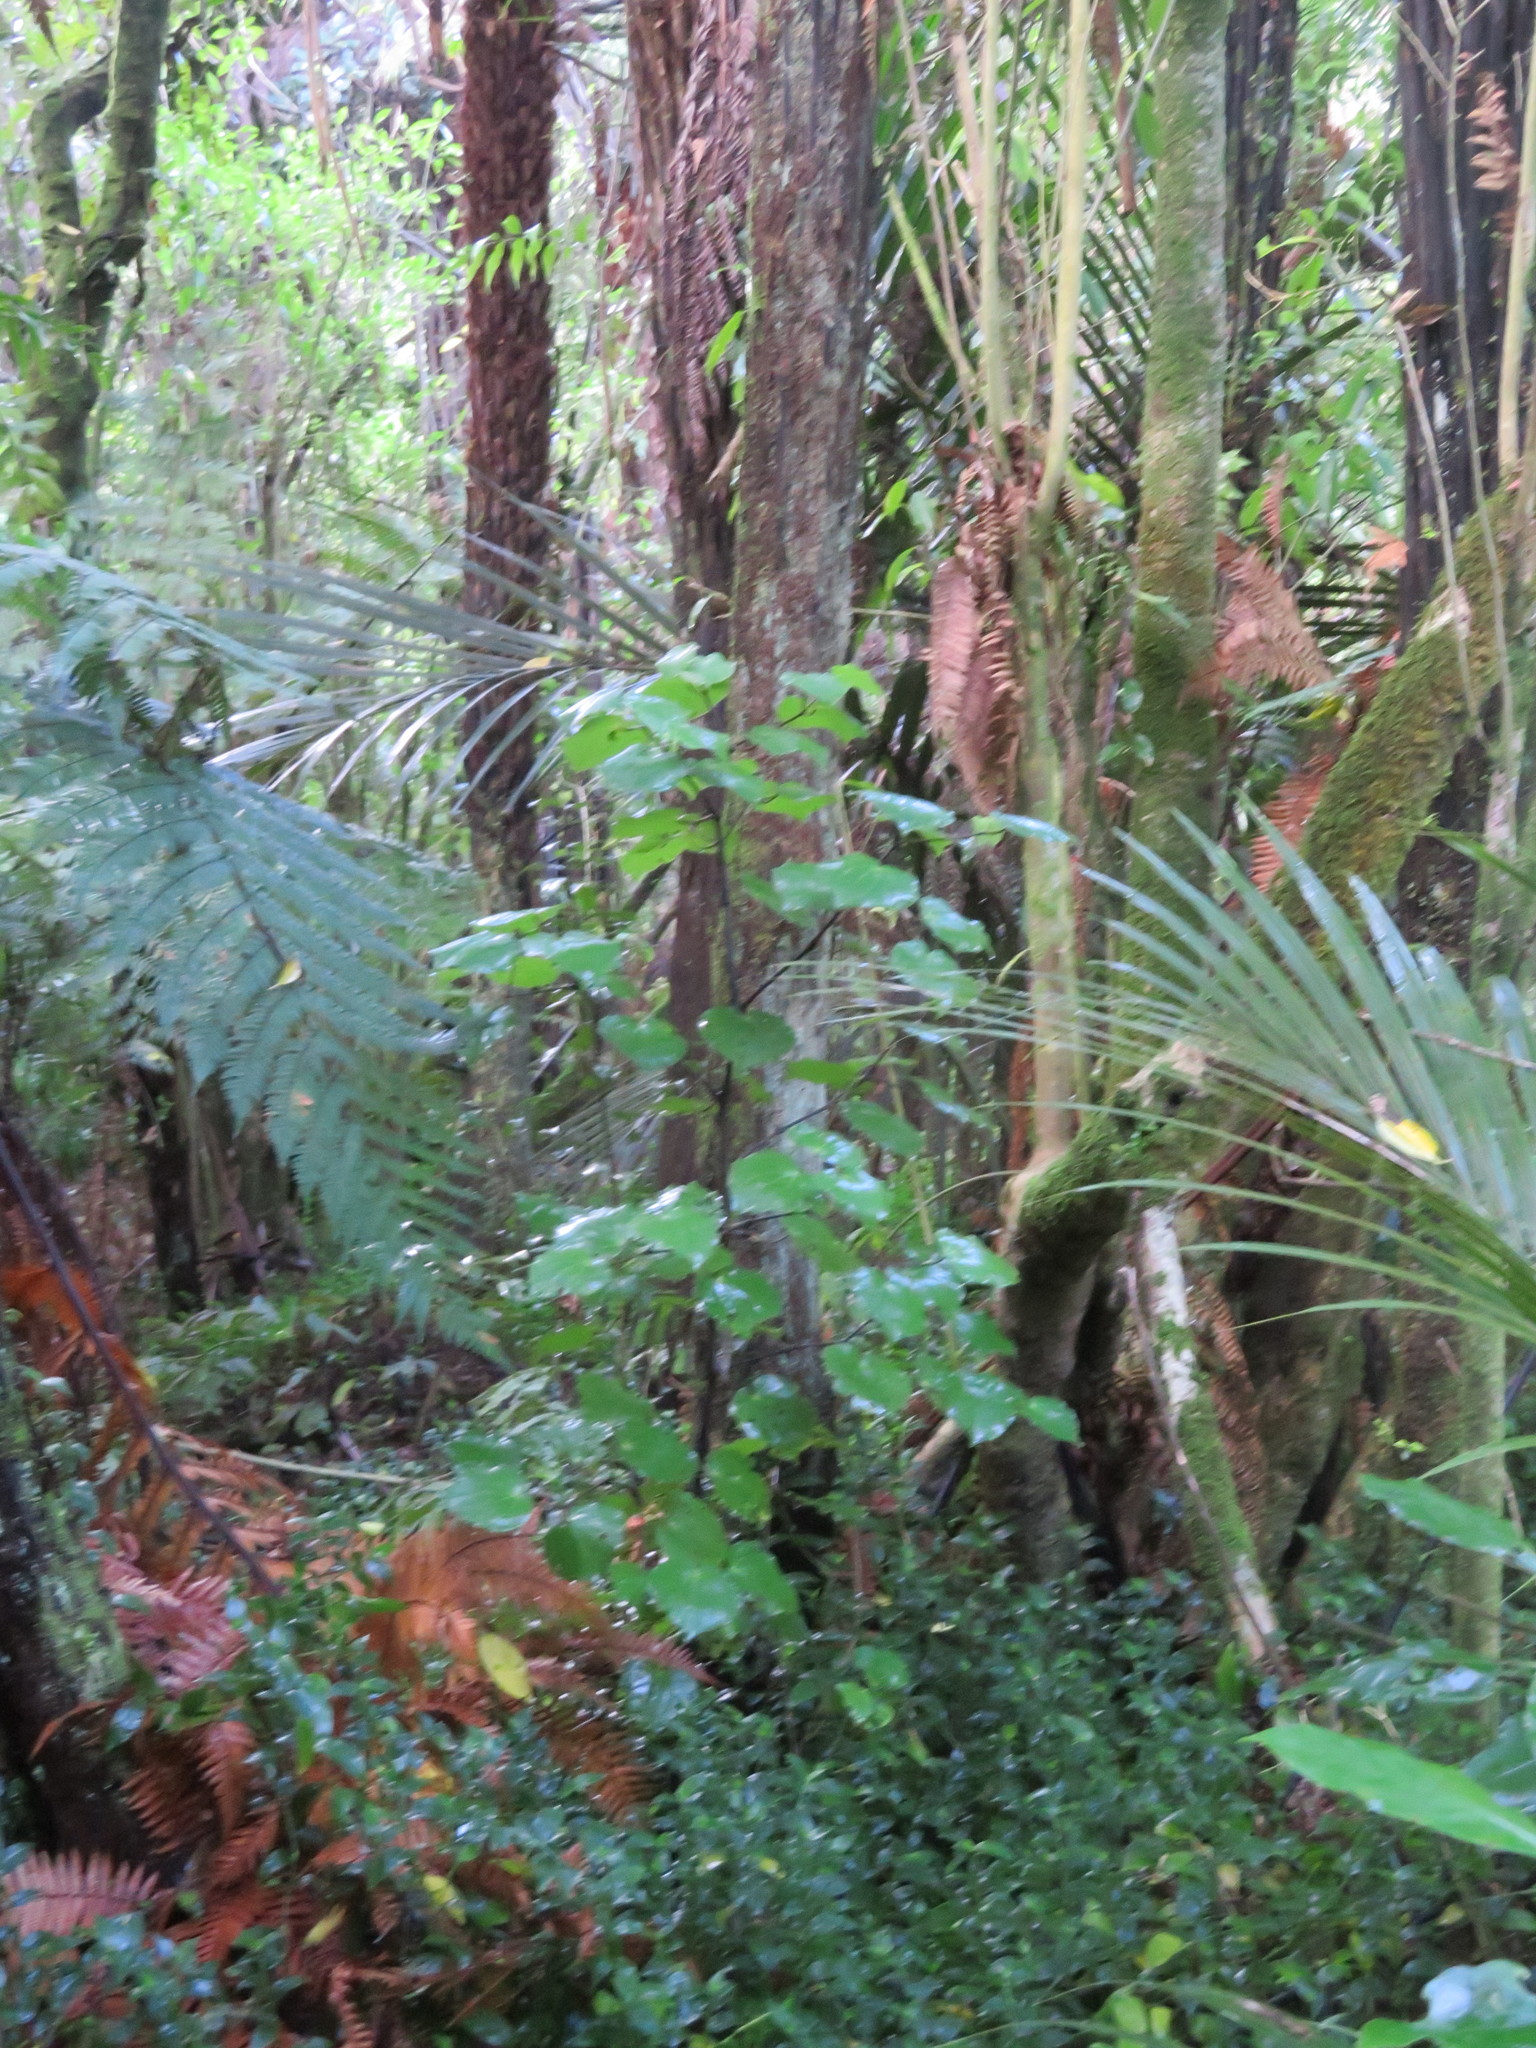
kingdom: Plantae
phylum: Tracheophyta
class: Magnoliopsida
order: Piperales
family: Piperaceae
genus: Macropiper
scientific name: Macropiper excelsum
